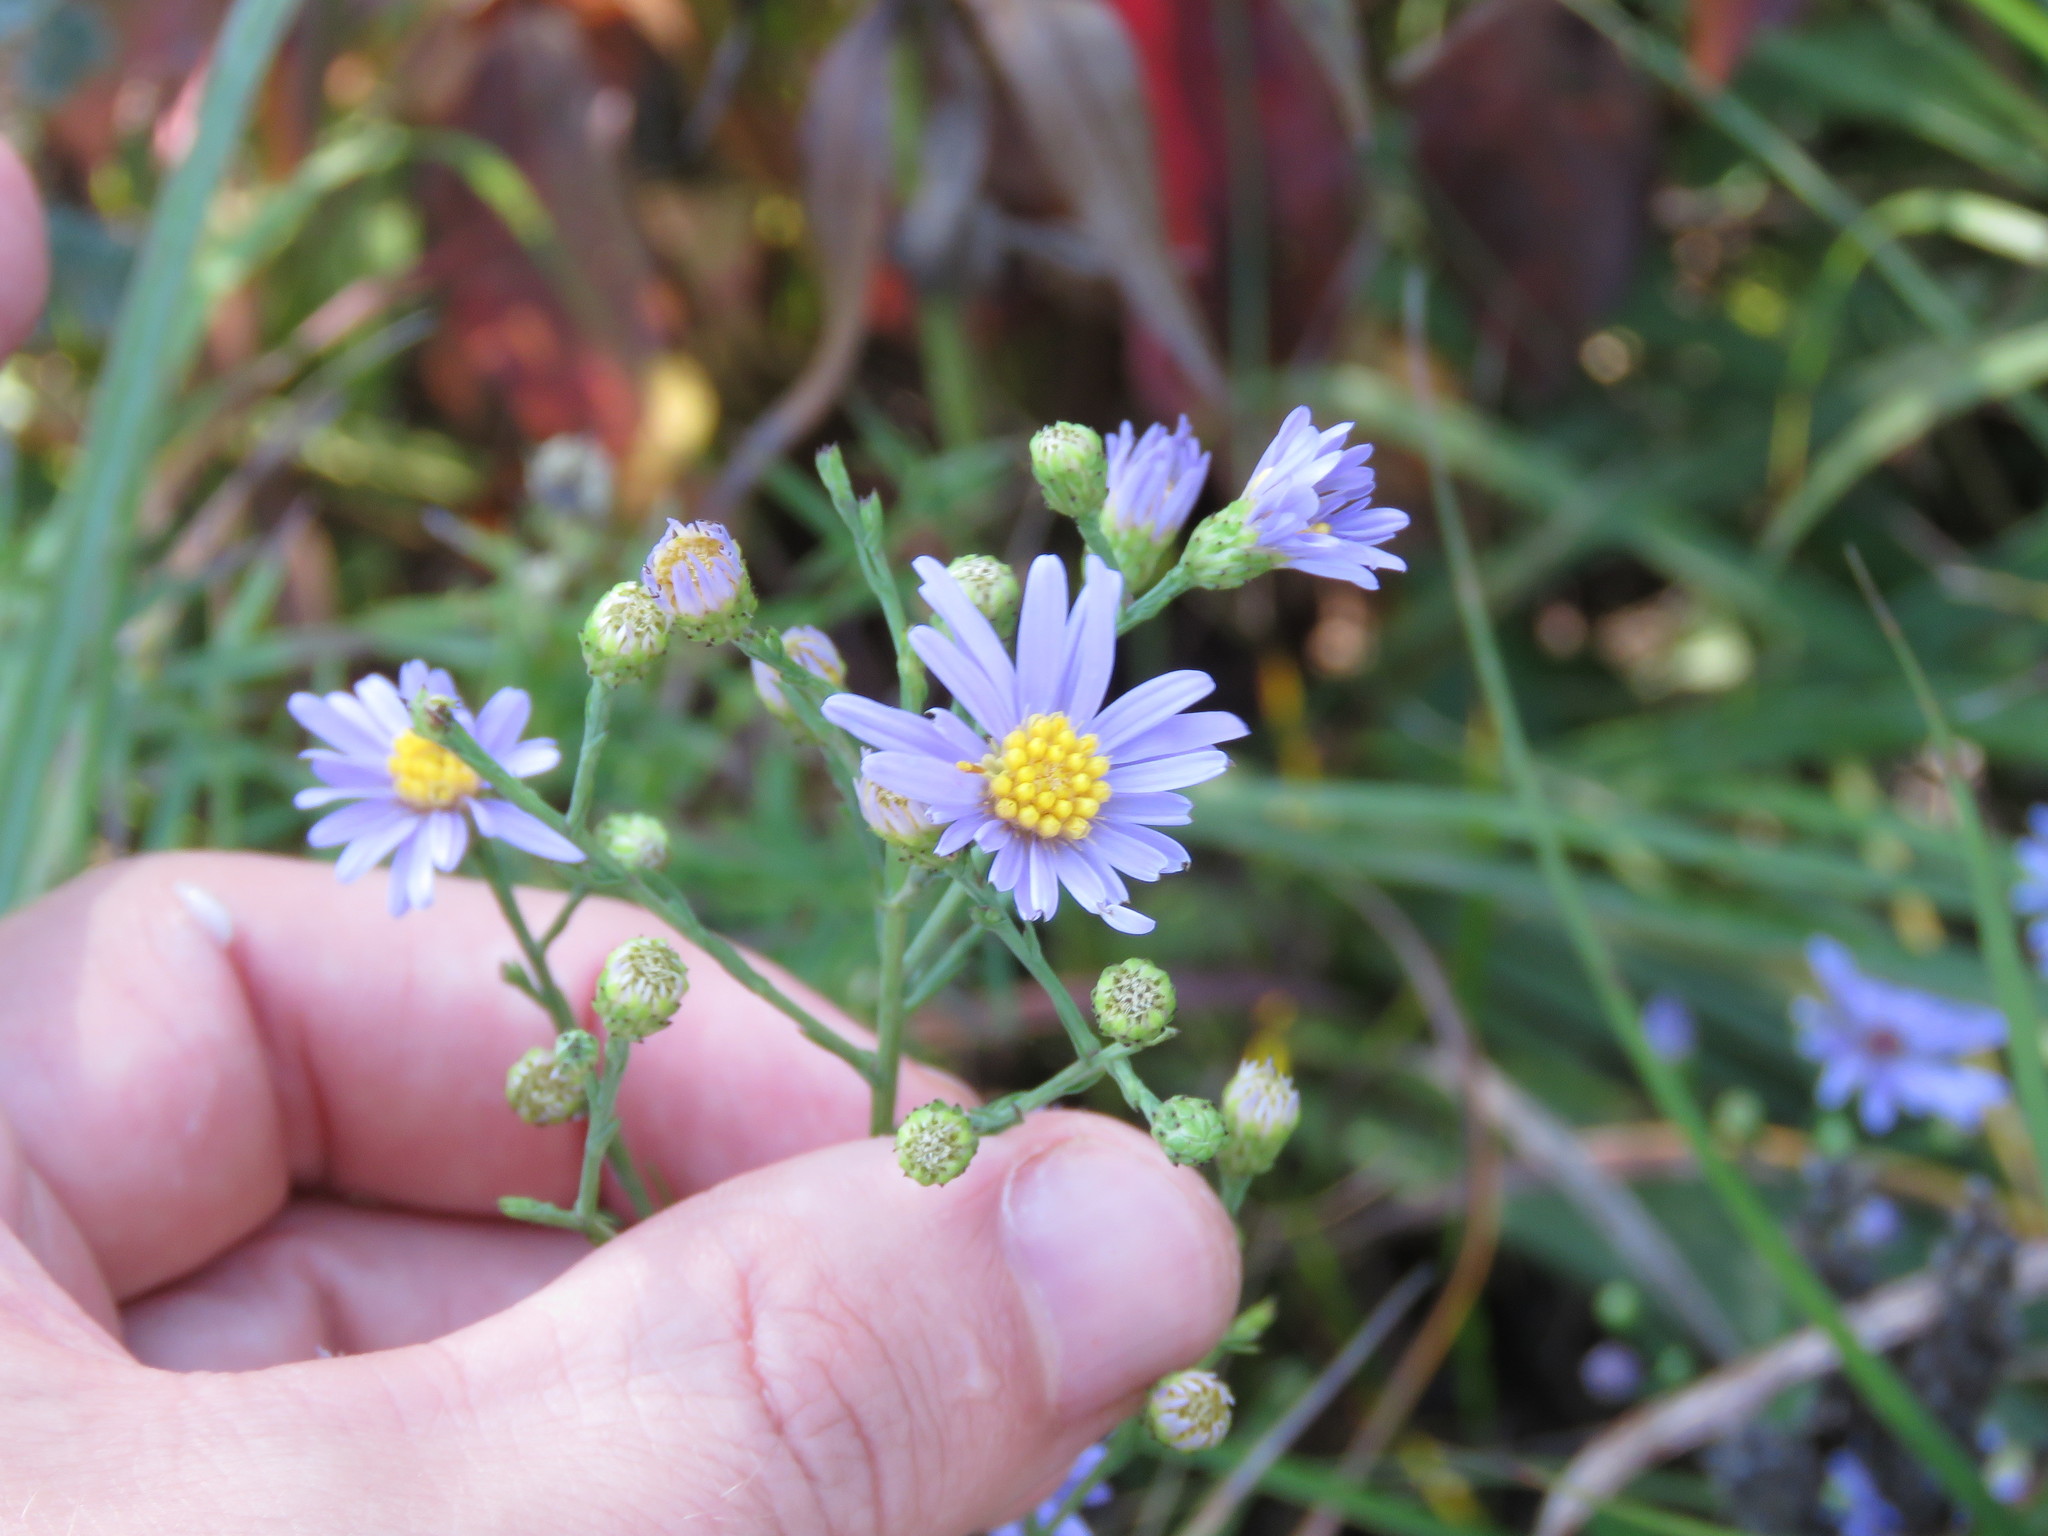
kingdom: Plantae
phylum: Tracheophyta
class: Magnoliopsida
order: Asterales
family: Asteraceae
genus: Symphyotrichum
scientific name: Symphyotrichum laeve
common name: Glaucous aster
